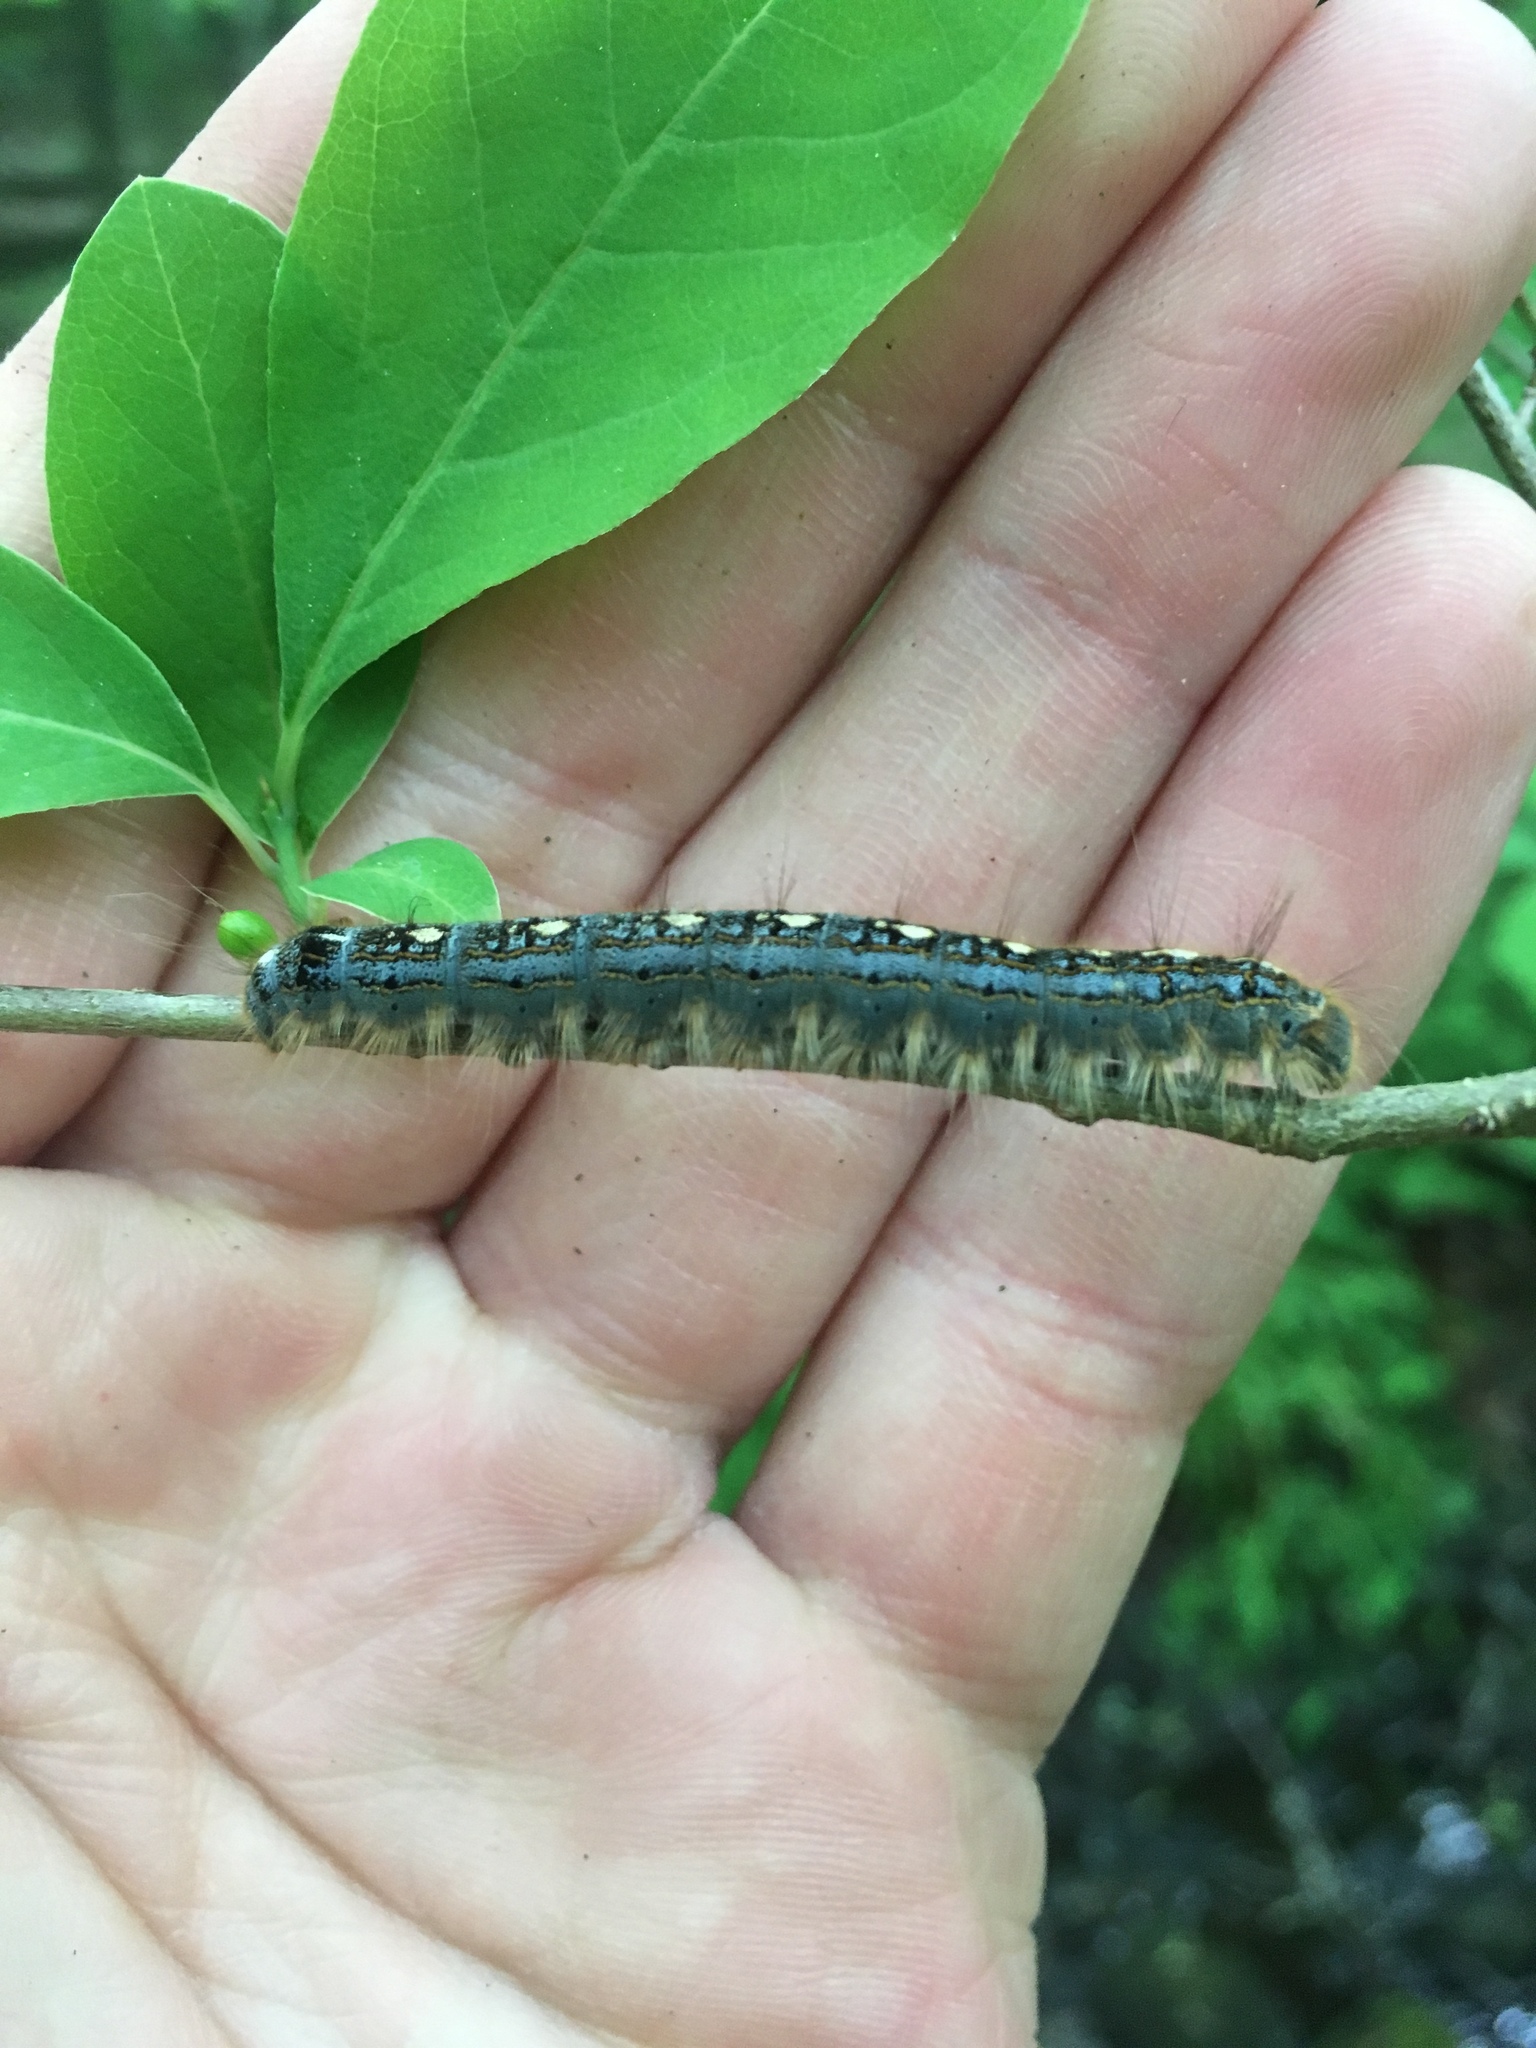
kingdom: Animalia
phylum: Arthropoda
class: Insecta
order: Lepidoptera
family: Lasiocampidae
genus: Malacosoma
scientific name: Malacosoma disstria
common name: Forest tent caterpillar
